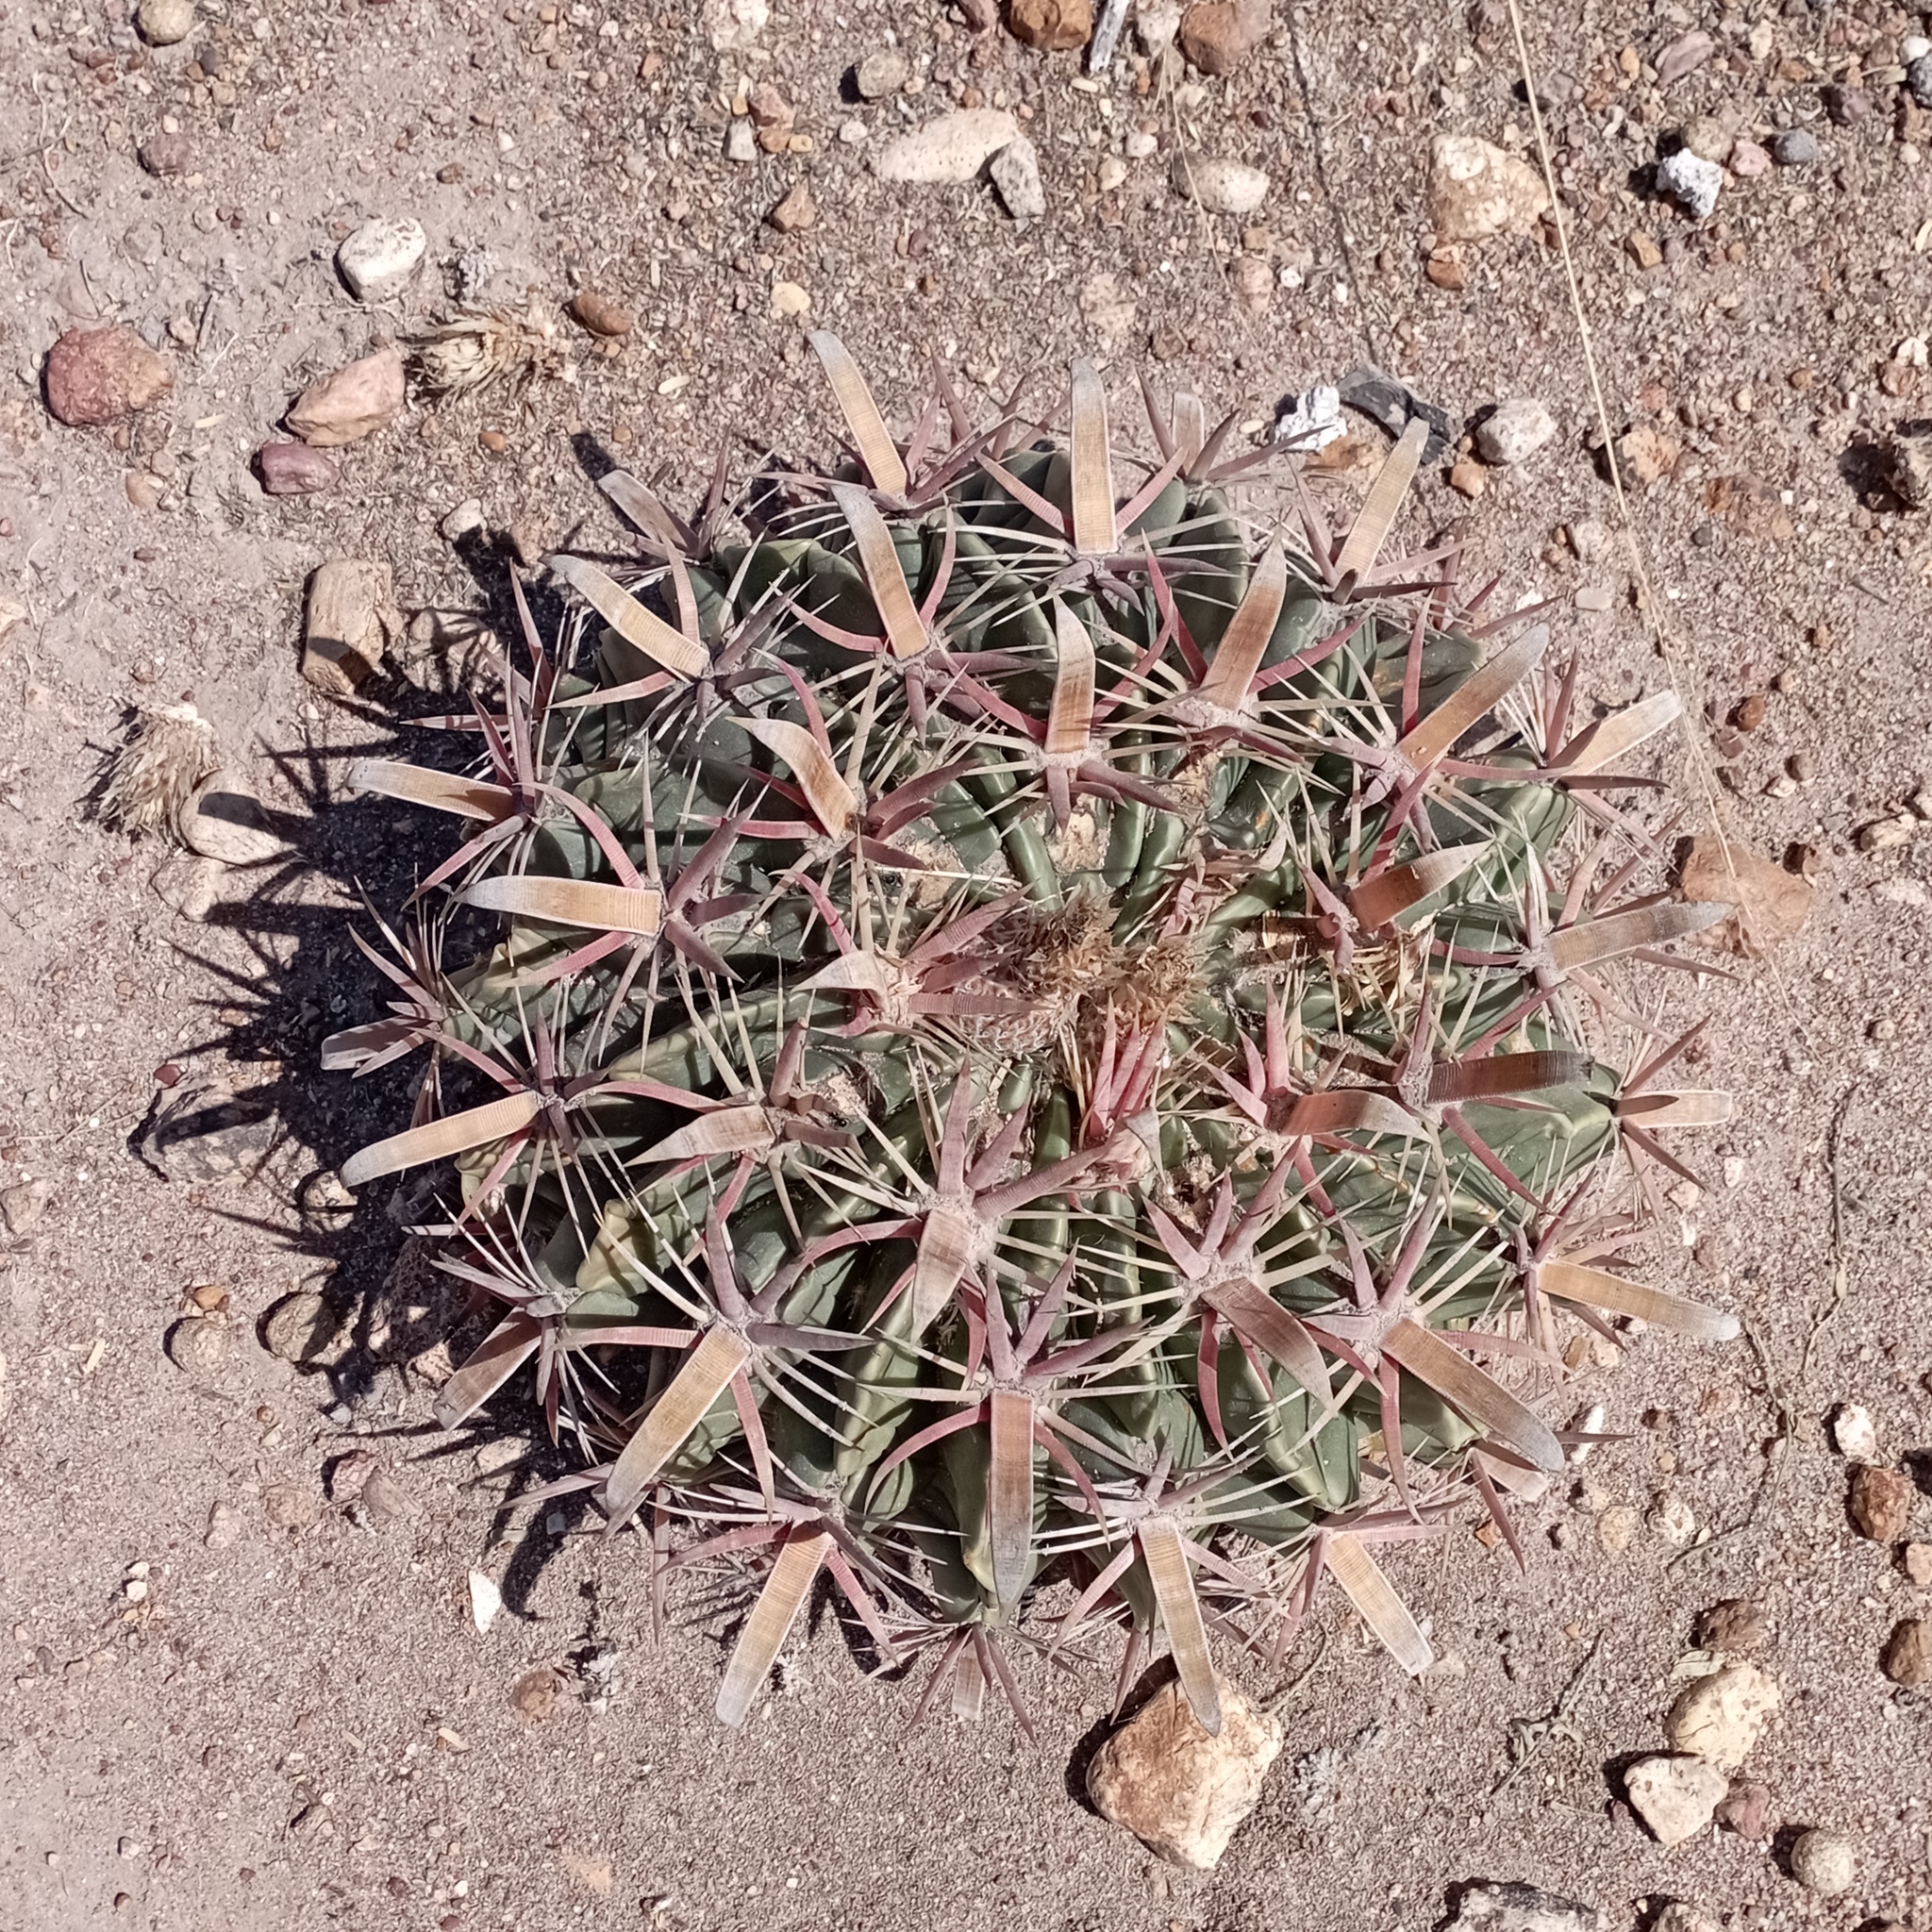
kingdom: Plantae
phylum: Tracheophyta
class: Magnoliopsida
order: Caryophyllales
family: Cactaceae
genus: Ferocactus
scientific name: Ferocactus latispinus
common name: Devil's-tongue cactus
